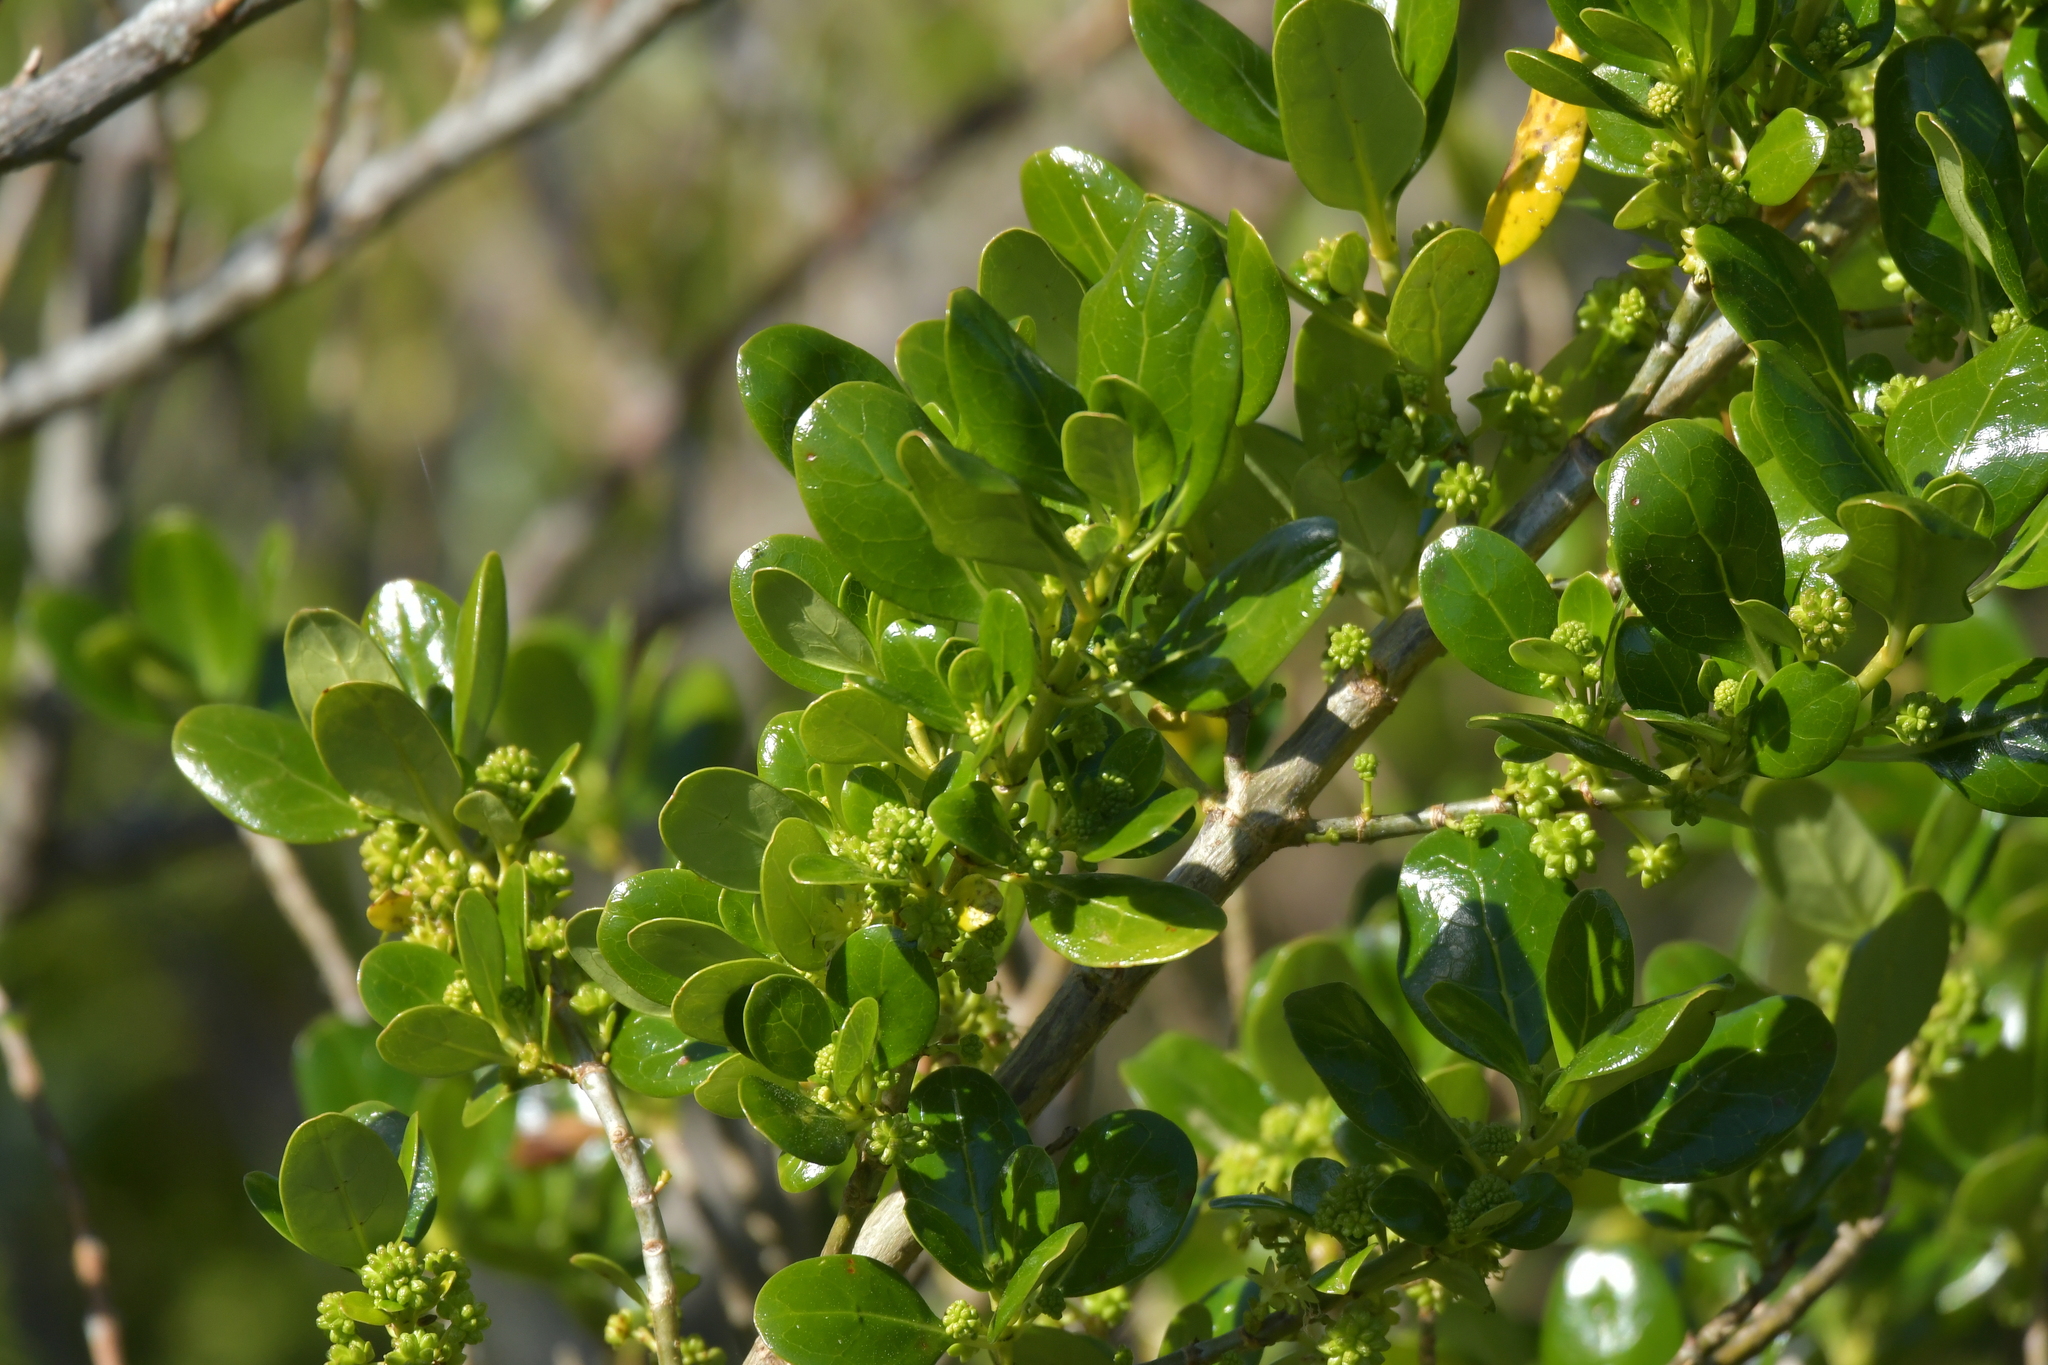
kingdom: Plantae
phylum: Tracheophyta
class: Magnoliopsida
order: Gentianales
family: Rubiaceae
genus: Coprosma
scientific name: Coprosma repens
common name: Tree bedstraw
